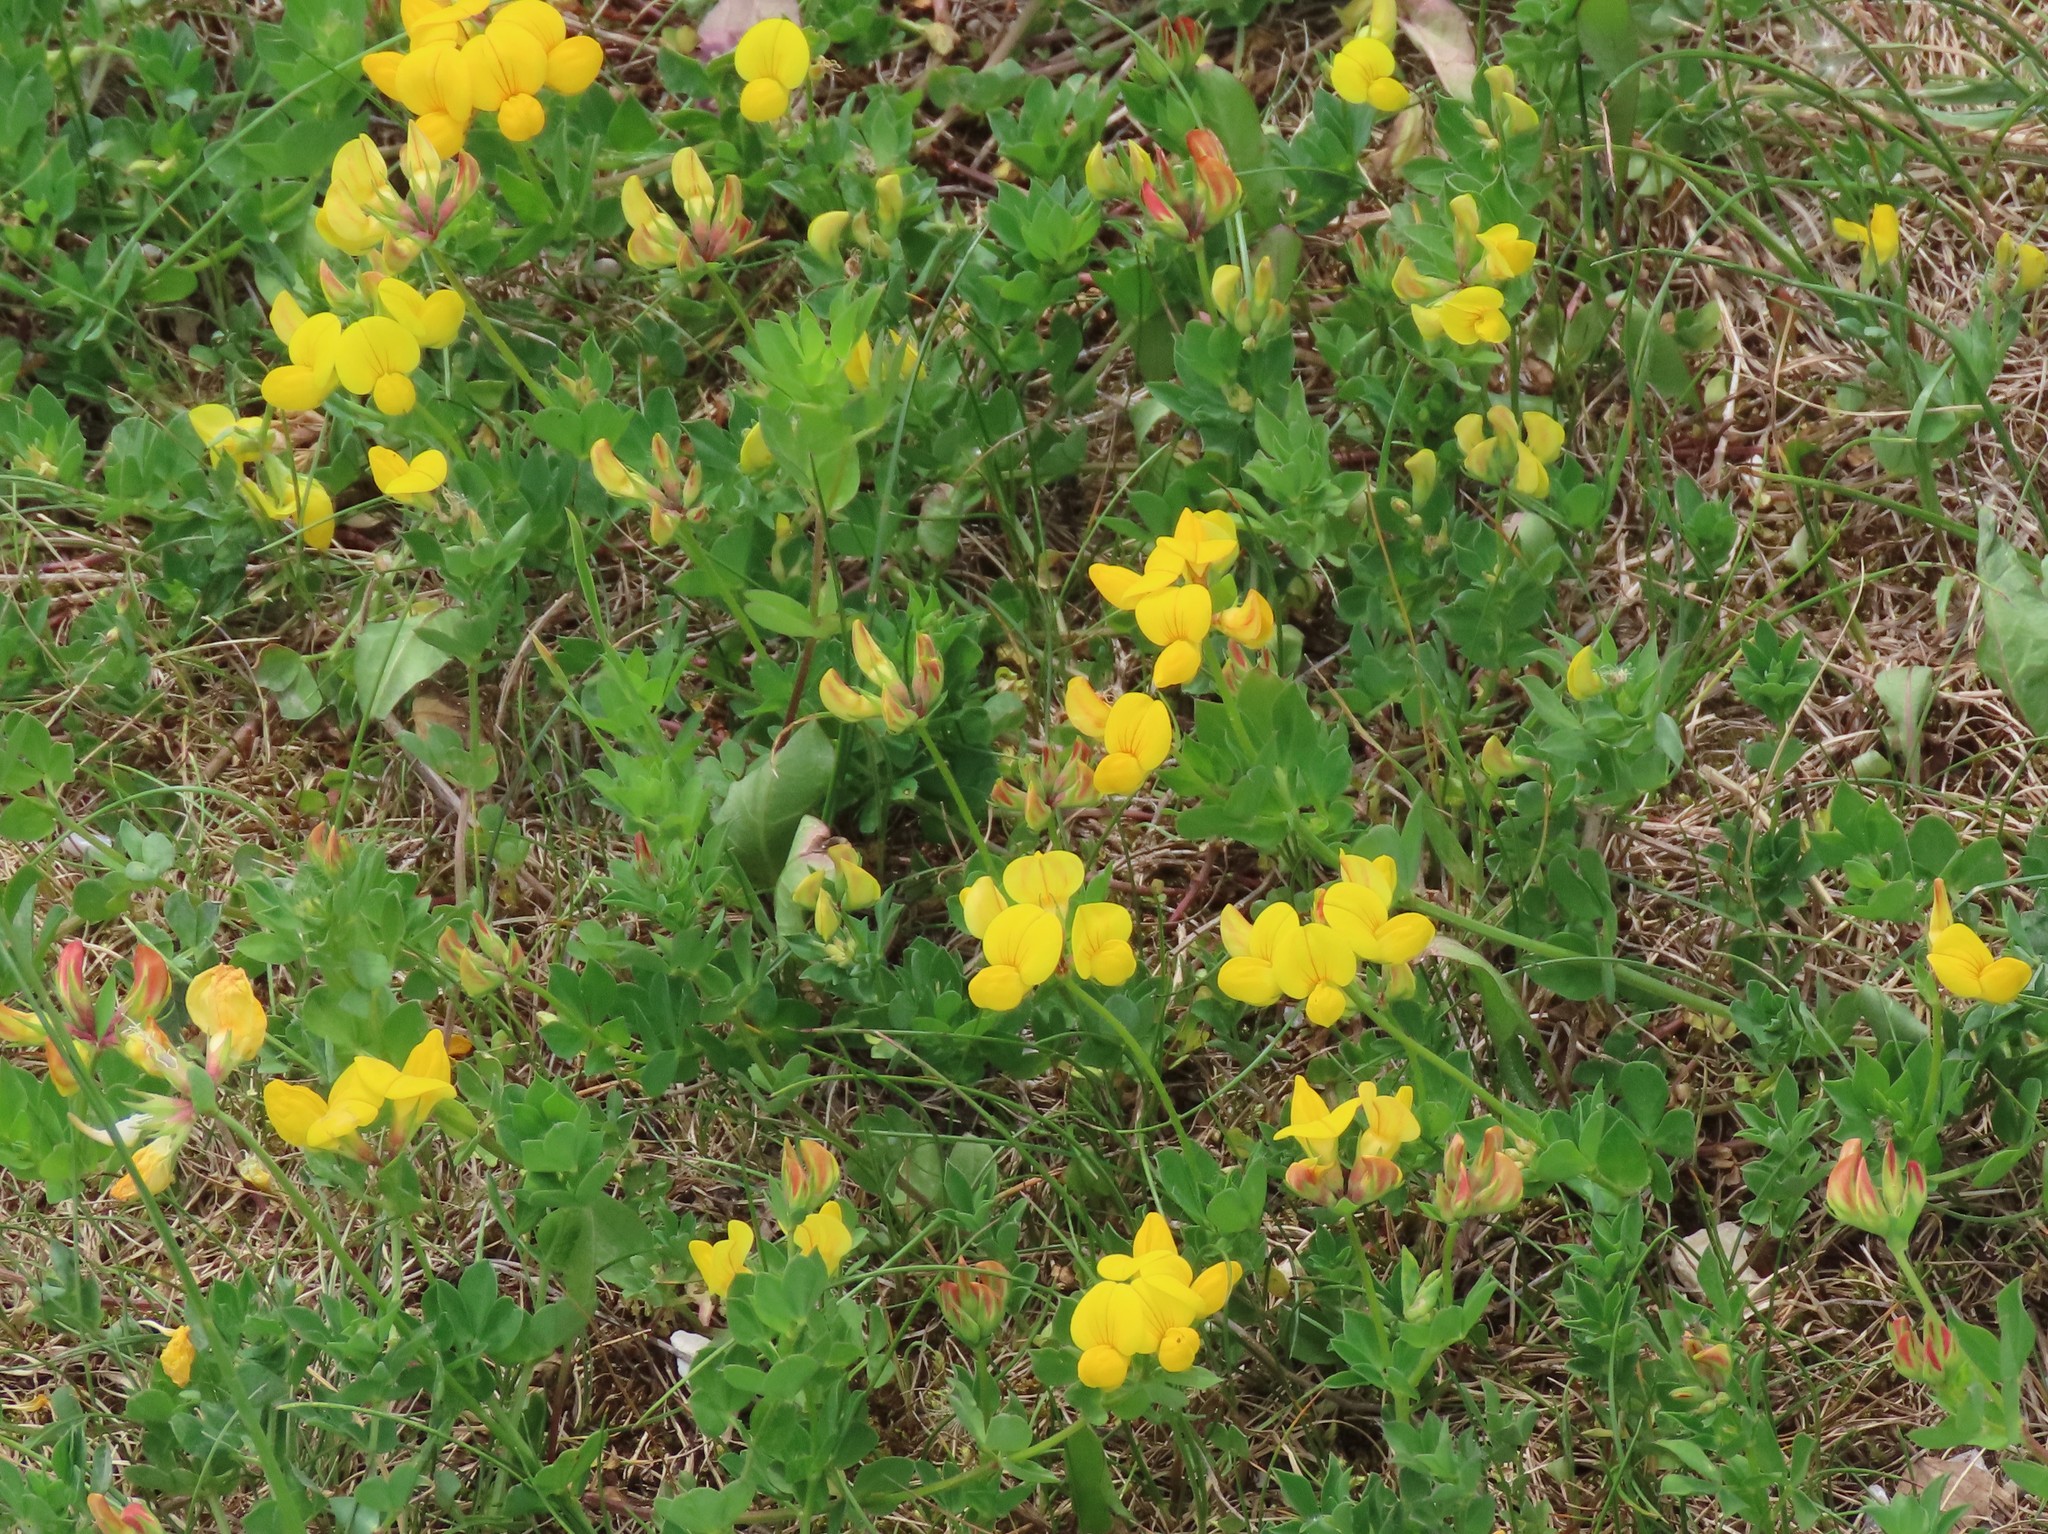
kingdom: Plantae
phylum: Tracheophyta
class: Magnoliopsida
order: Fabales
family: Fabaceae
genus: Lotus
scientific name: Lotus corniculatus
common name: Common bird's-foot-trefoil
